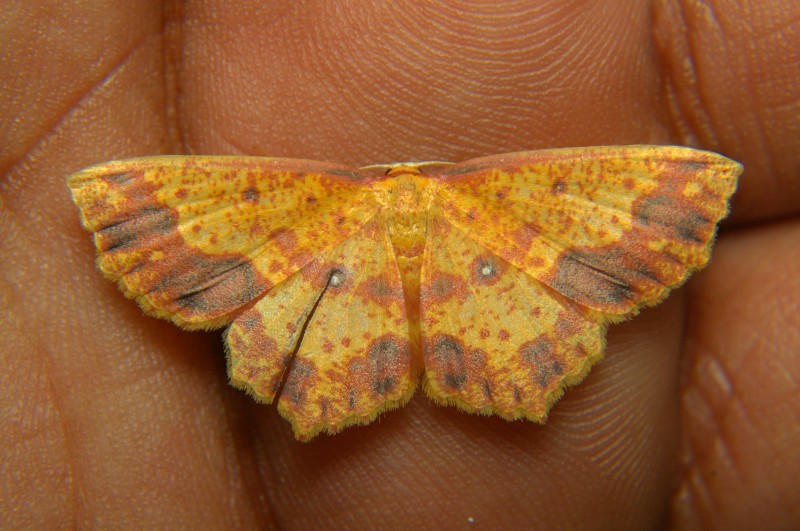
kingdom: Animalia
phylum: Arthropoda
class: Insecta
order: Lepidoptera
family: Geometridae
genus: Synegiodes
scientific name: Synegiodes histrionaria
